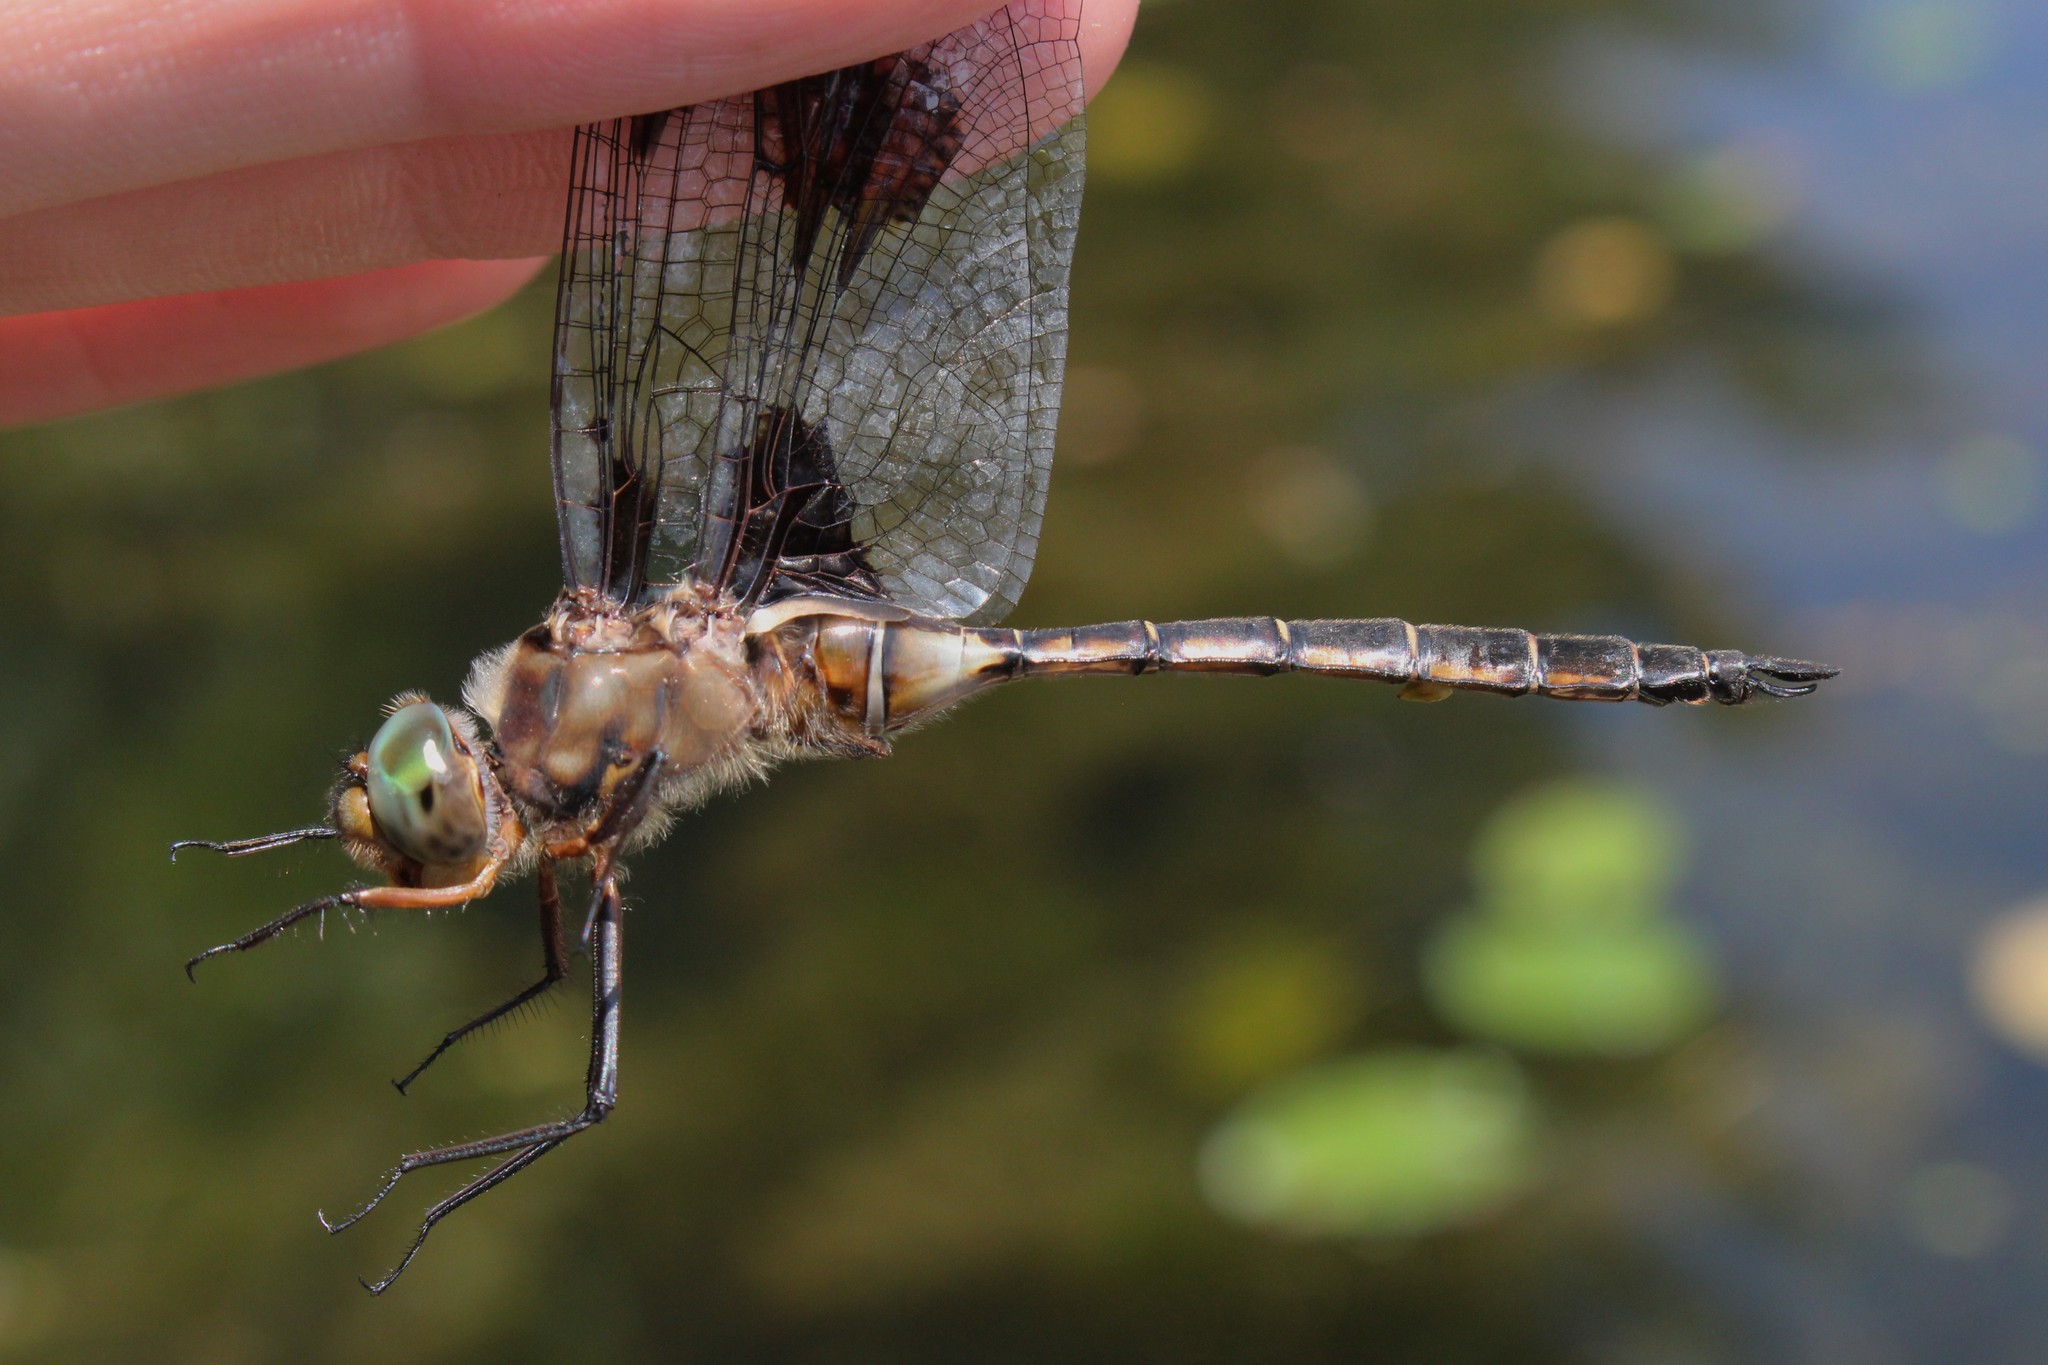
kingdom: Animalia
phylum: Arthropoda
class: Insecta
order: Odonata
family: Corduliidae
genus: Epitheca
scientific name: Epitheca princeps
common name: Prince baskettail
